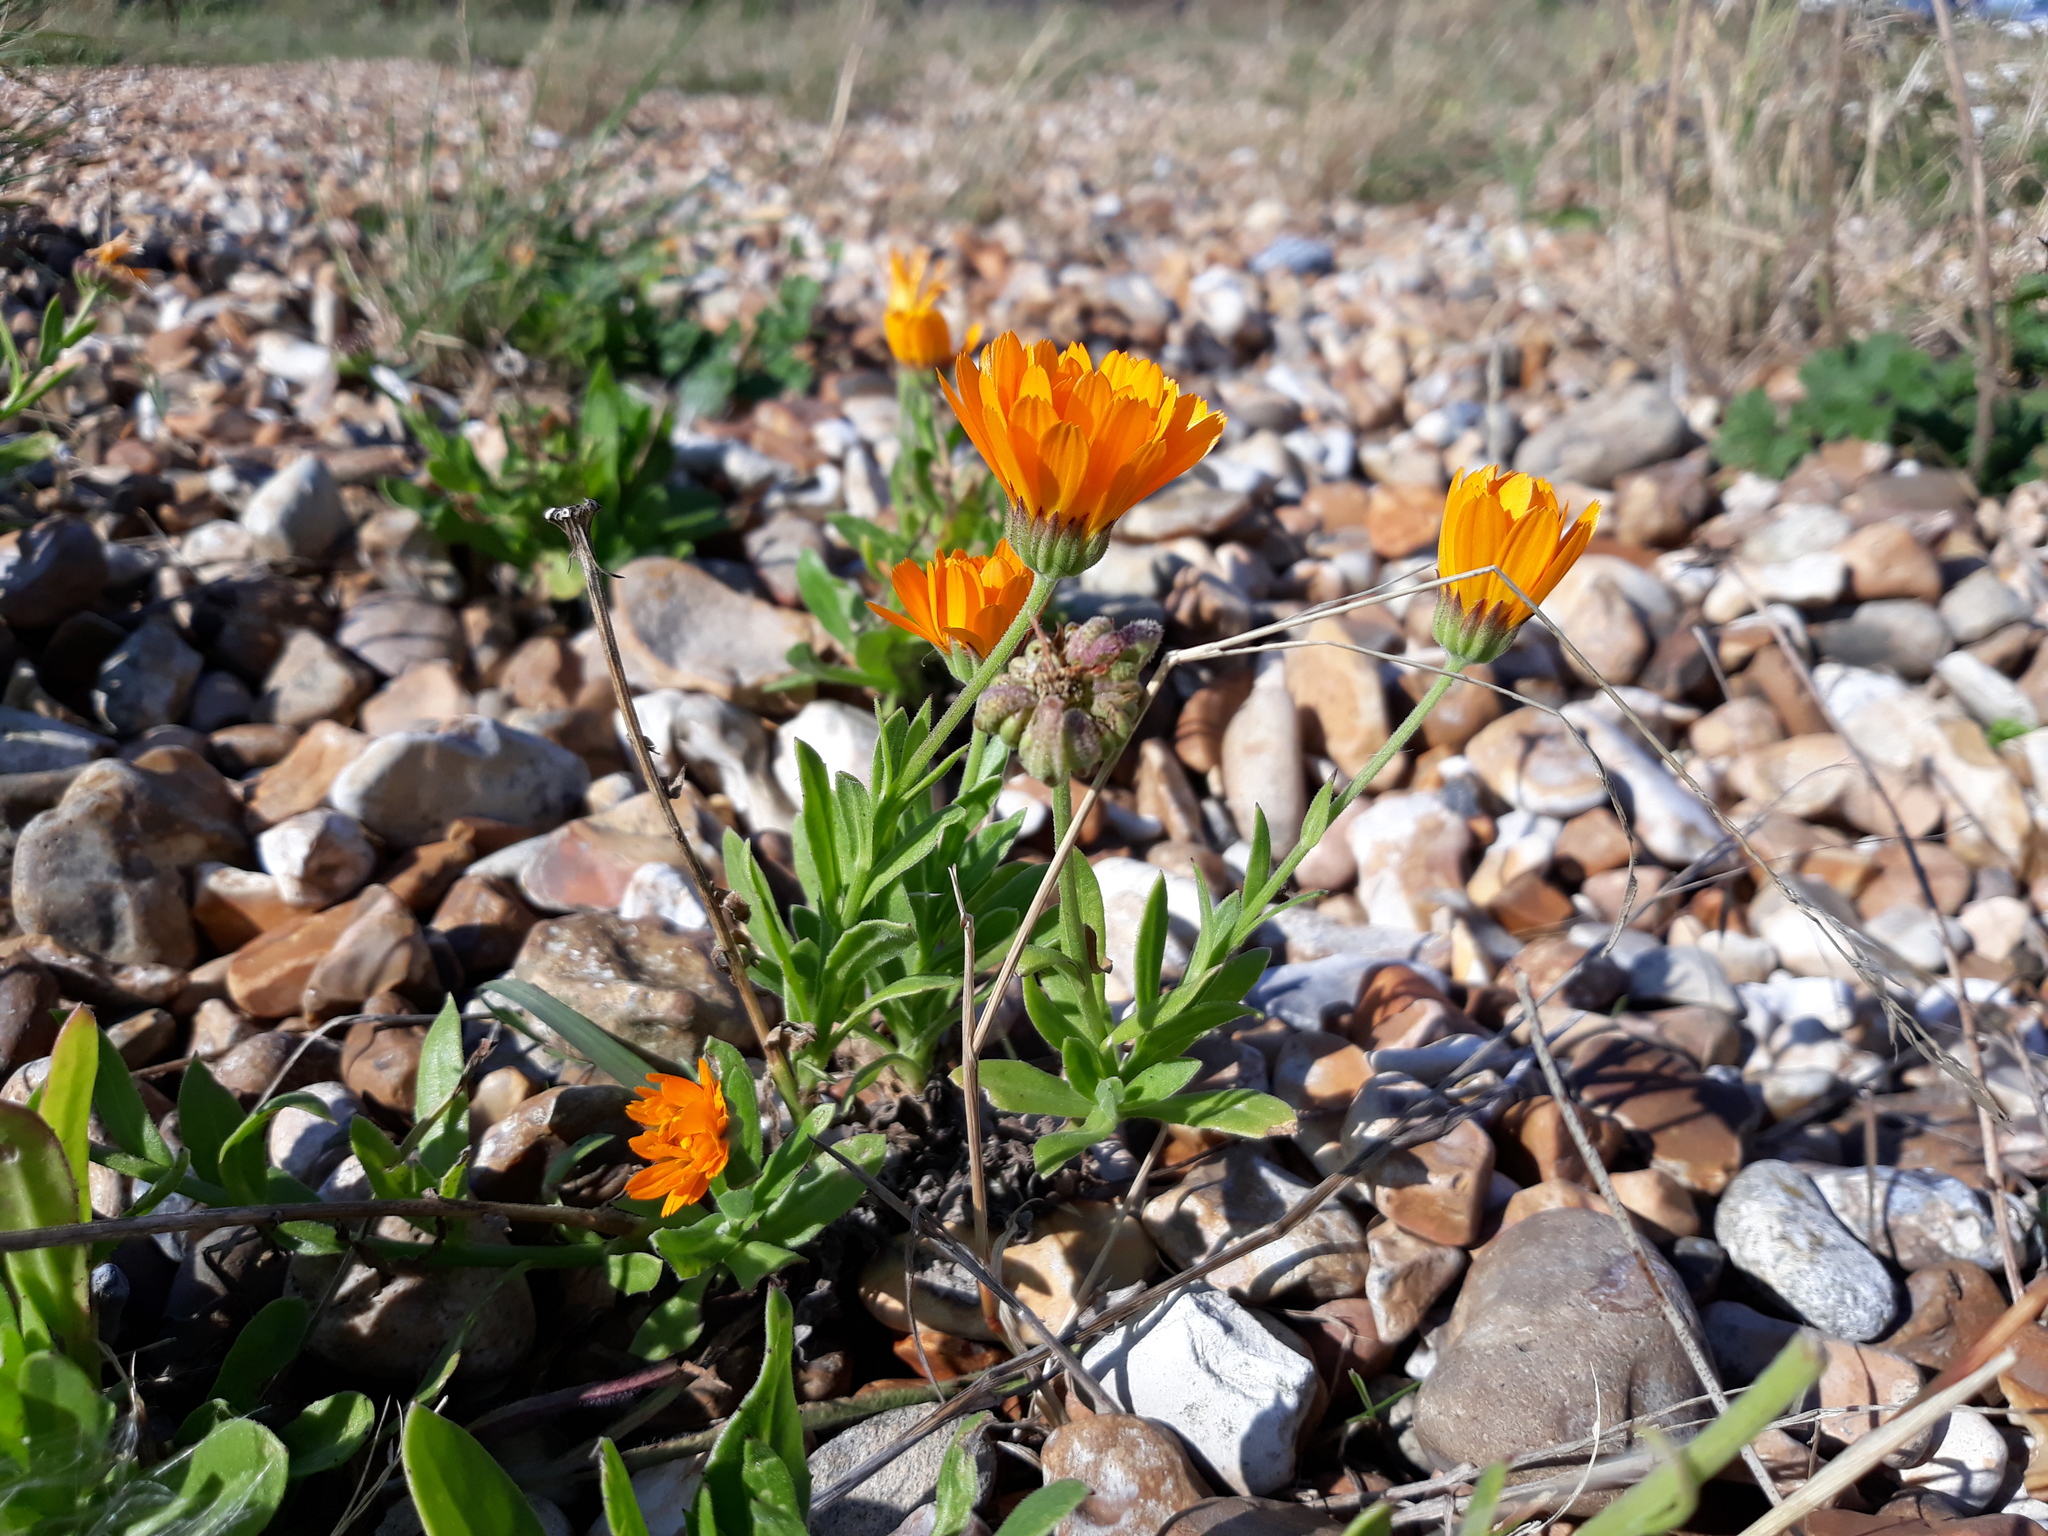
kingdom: Plantae
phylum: Tracheophyta
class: Magnoliopsida
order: Asterales
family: Asteraceae
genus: Calendula
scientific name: Calendula officinalis
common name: Pot marigold
